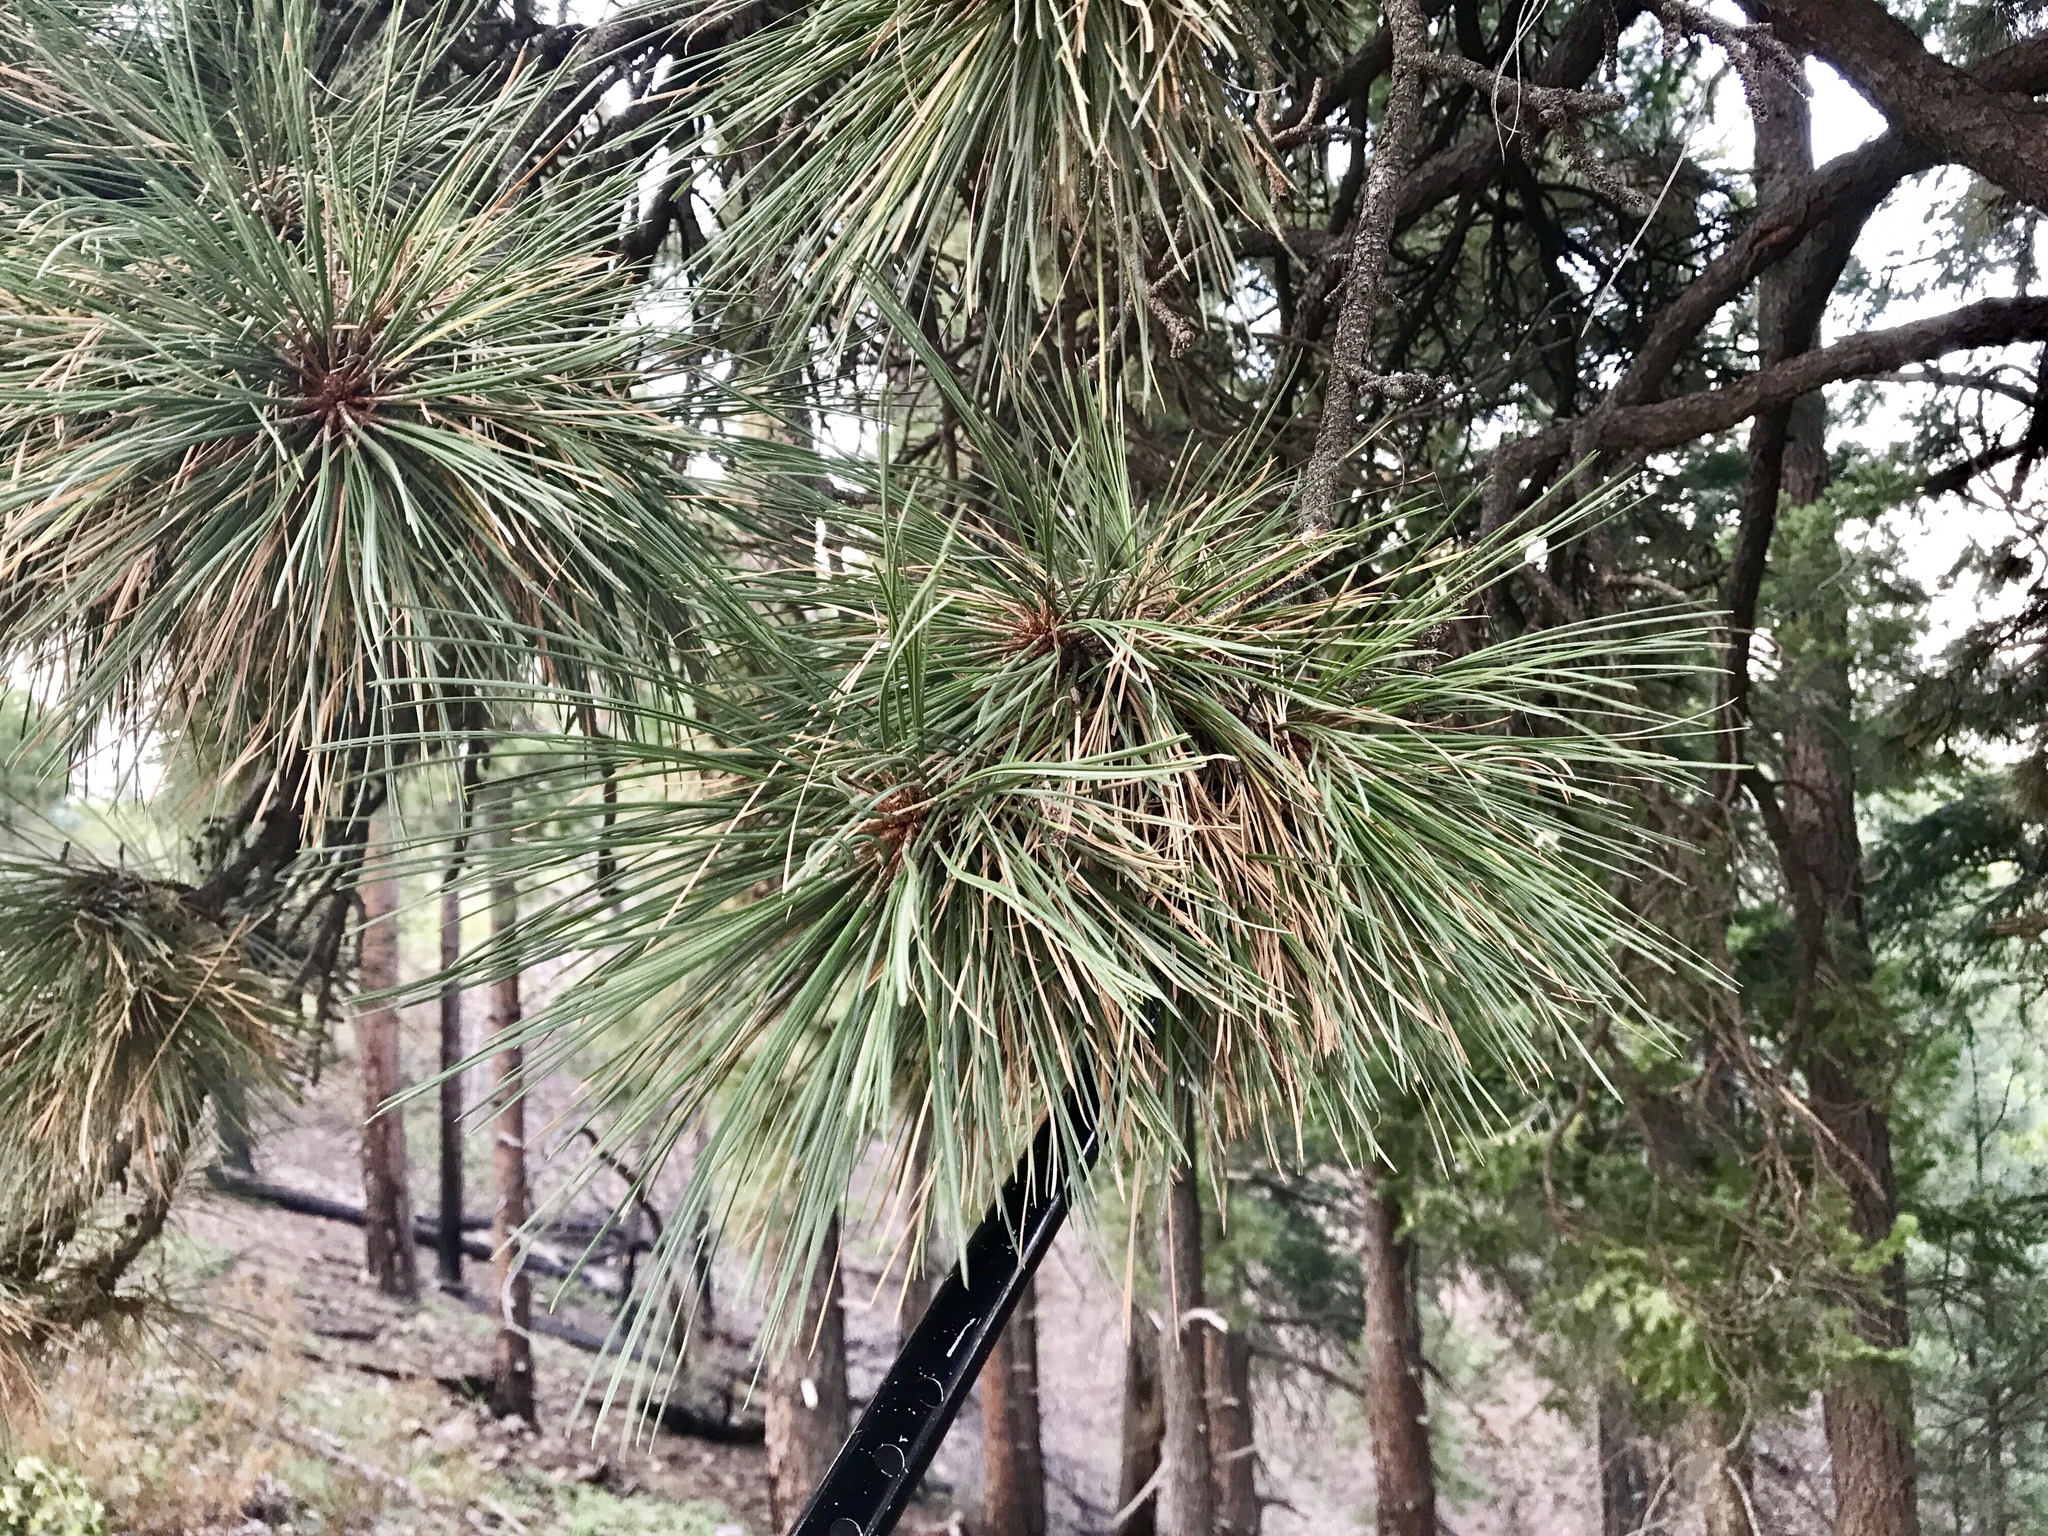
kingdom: Plantae
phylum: Tracheophyta
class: Pinopsida
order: Pinales
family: Pinaceae
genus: Pinus
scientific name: Pinus ponderosa
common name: Western yellow-pine
